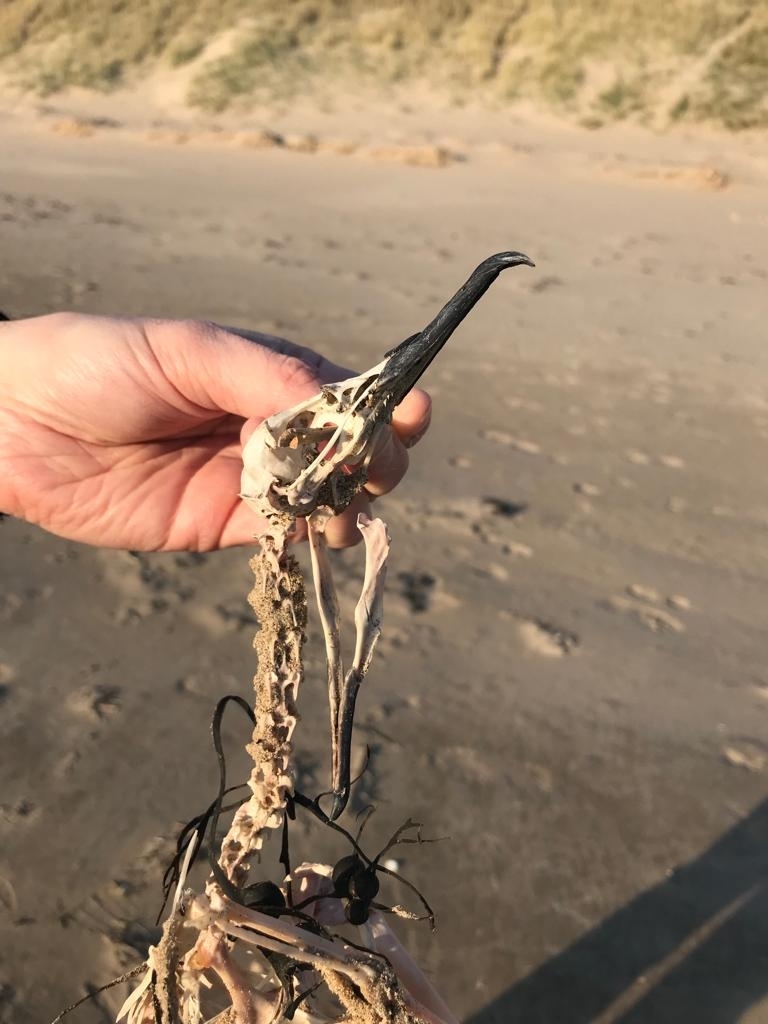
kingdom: Animalia
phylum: Chordata
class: Aves
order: Procellariiformes
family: Procellariidae
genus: Puffinus
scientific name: Puffinus puffinus
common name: Manx shearwater
